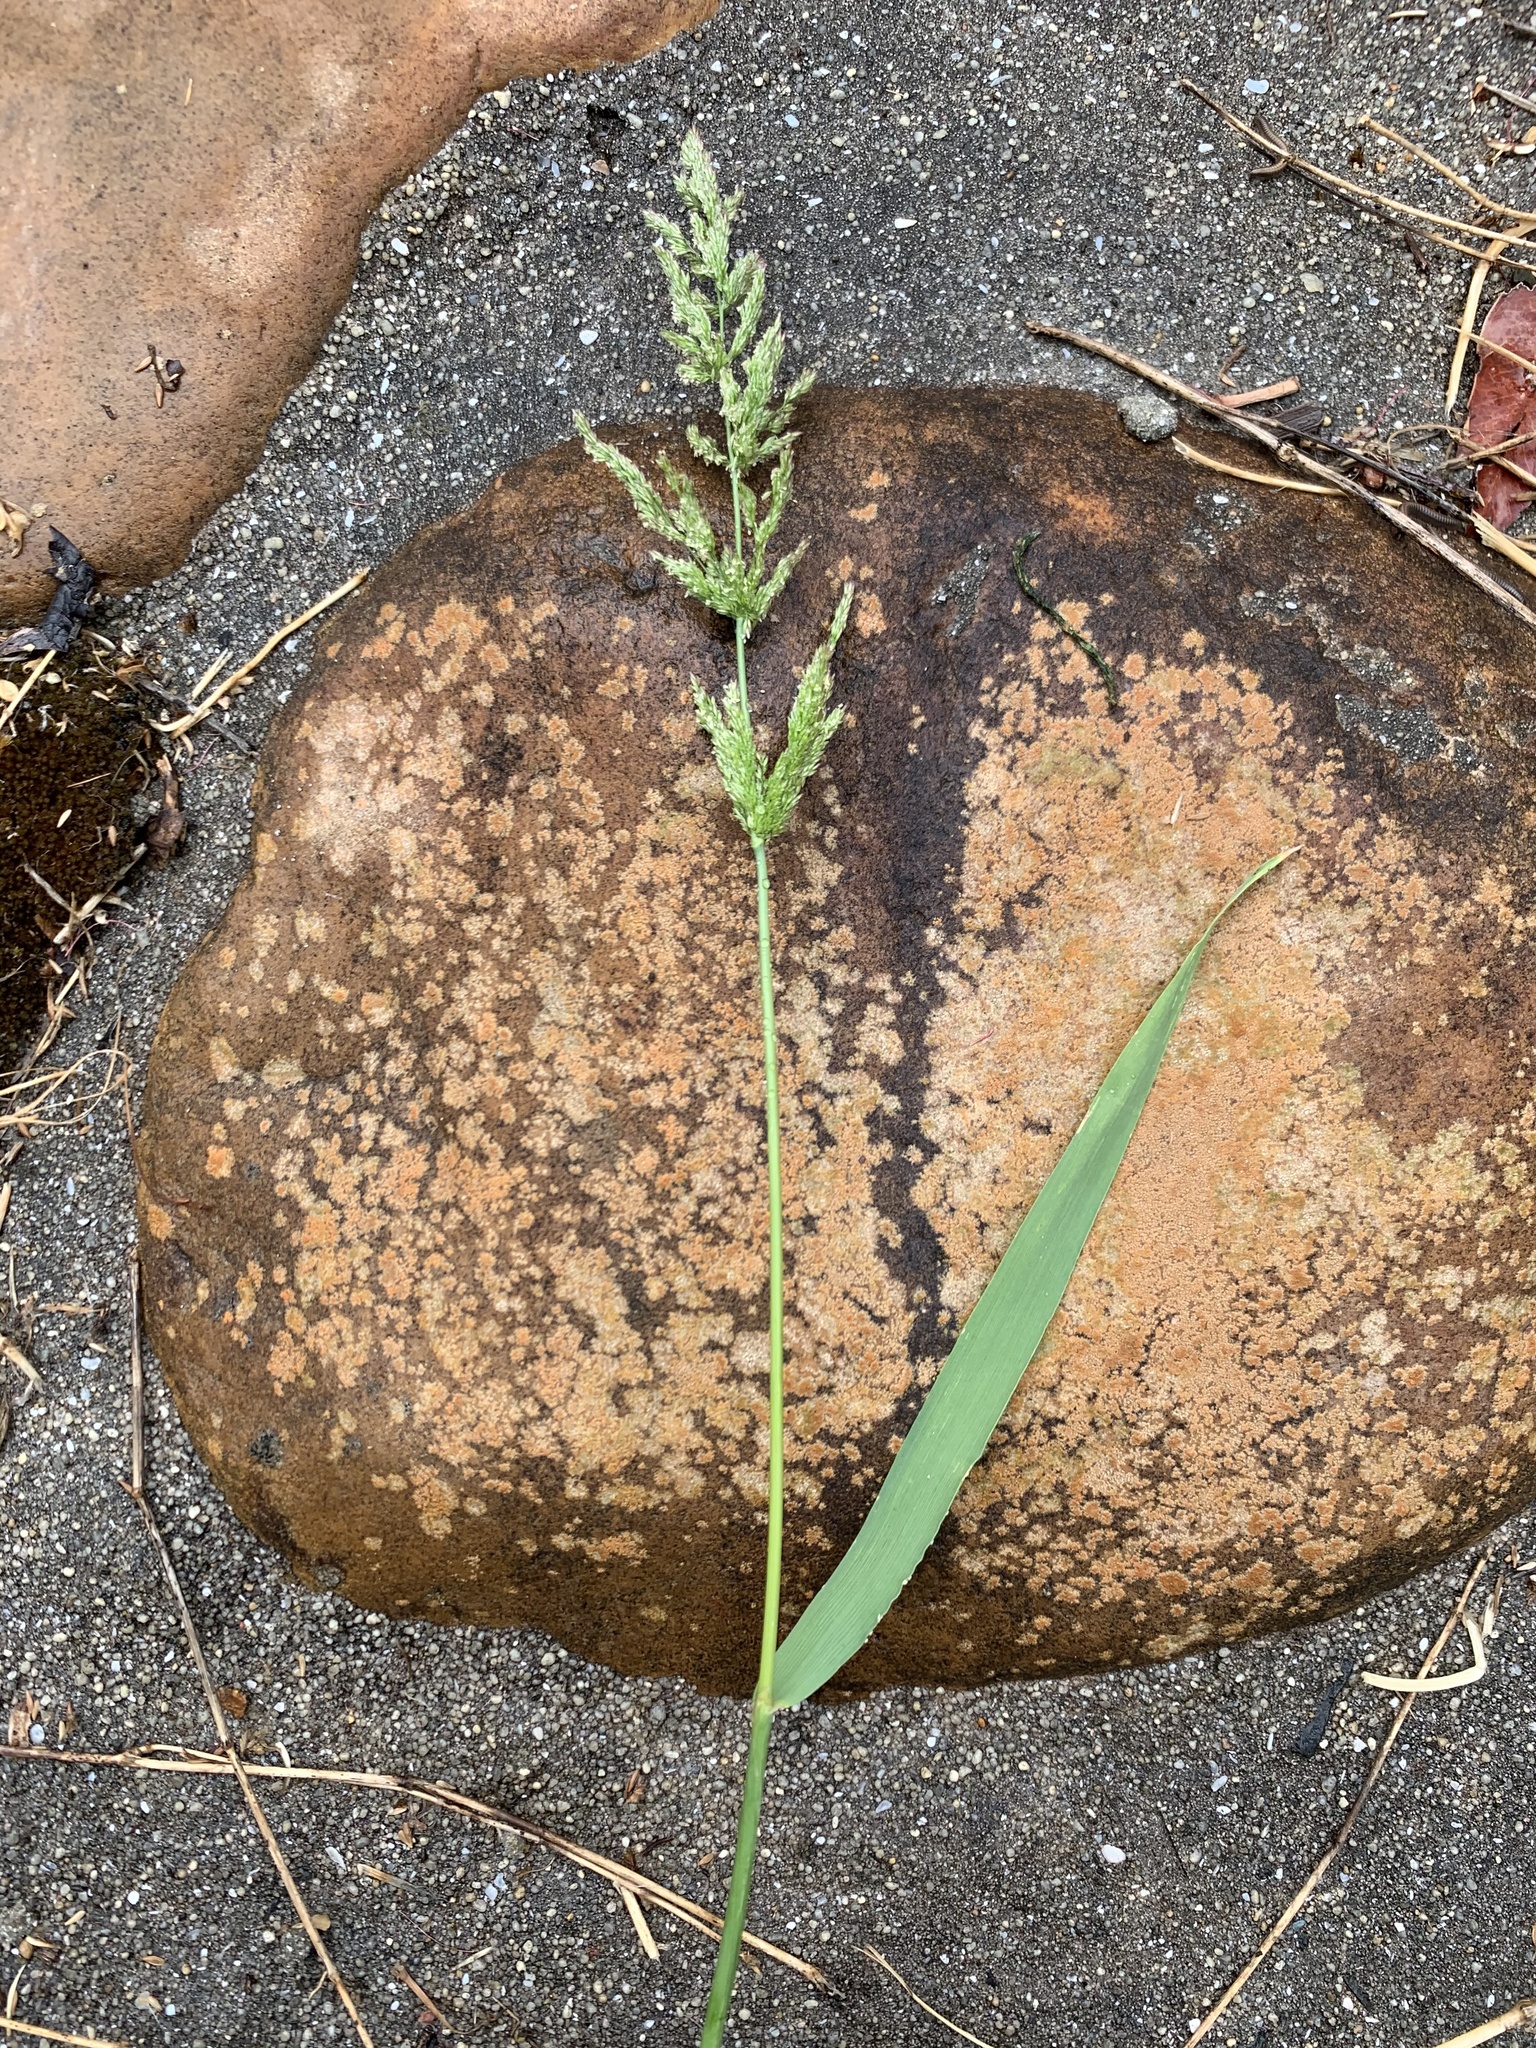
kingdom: Plantae
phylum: Tracheophyta
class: Liliopsida
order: Poales
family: Poaceae
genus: Polypogon
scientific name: Polypogon viridis
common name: Water bent
